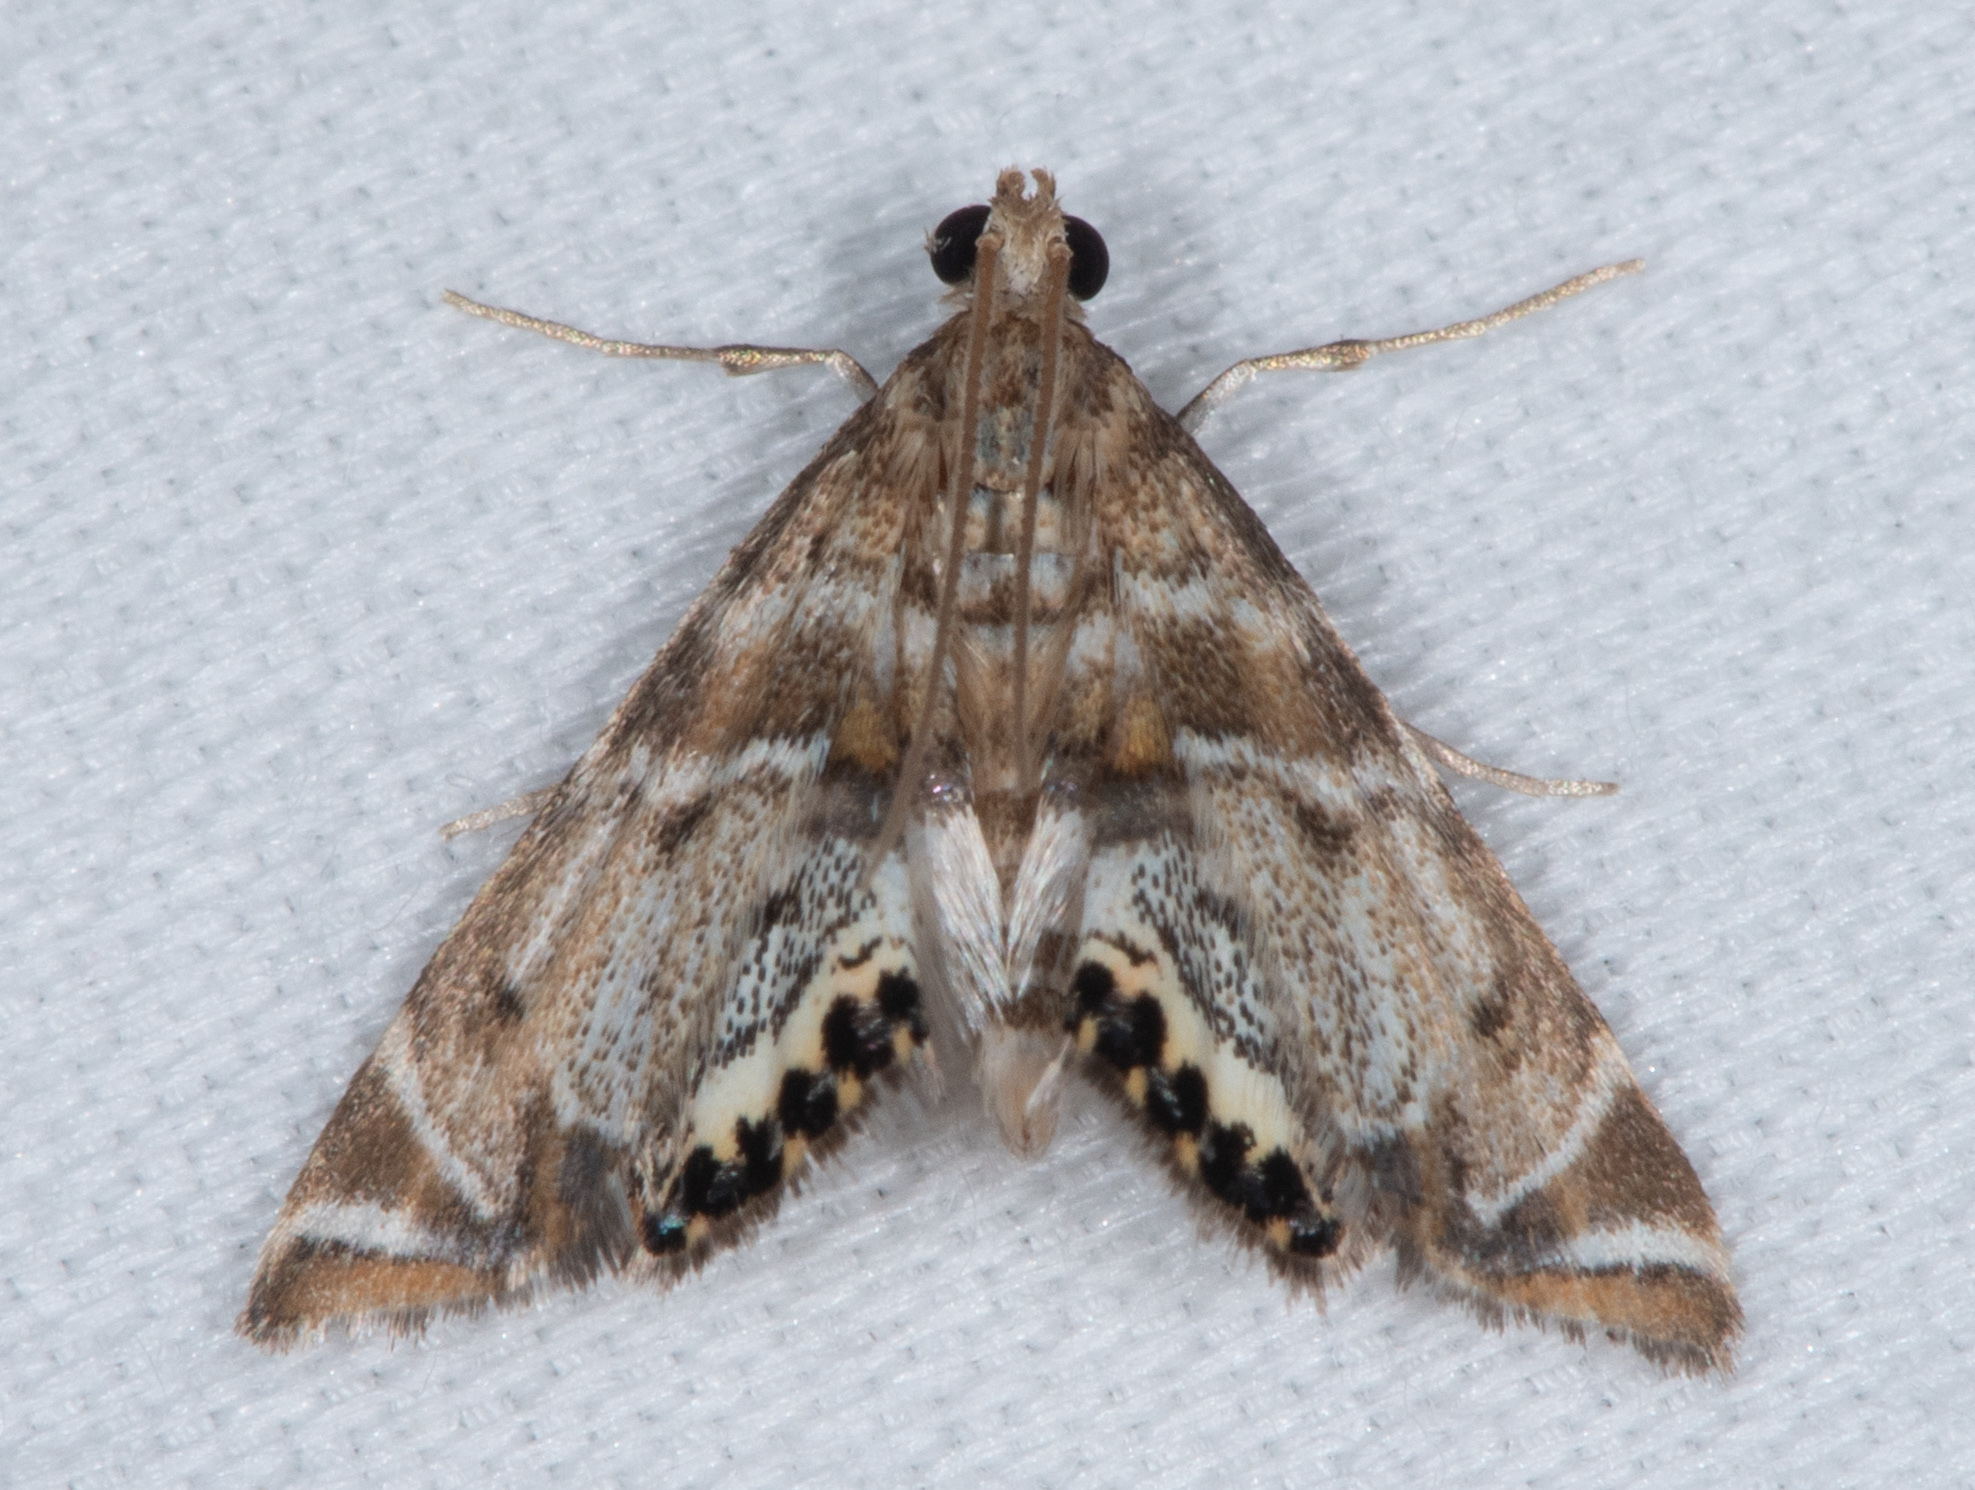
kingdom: Animalia
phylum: Arthropoda
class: Insecta
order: Lepidoptera
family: Crambidae
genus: Petrophila
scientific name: Petrophila confusalis
